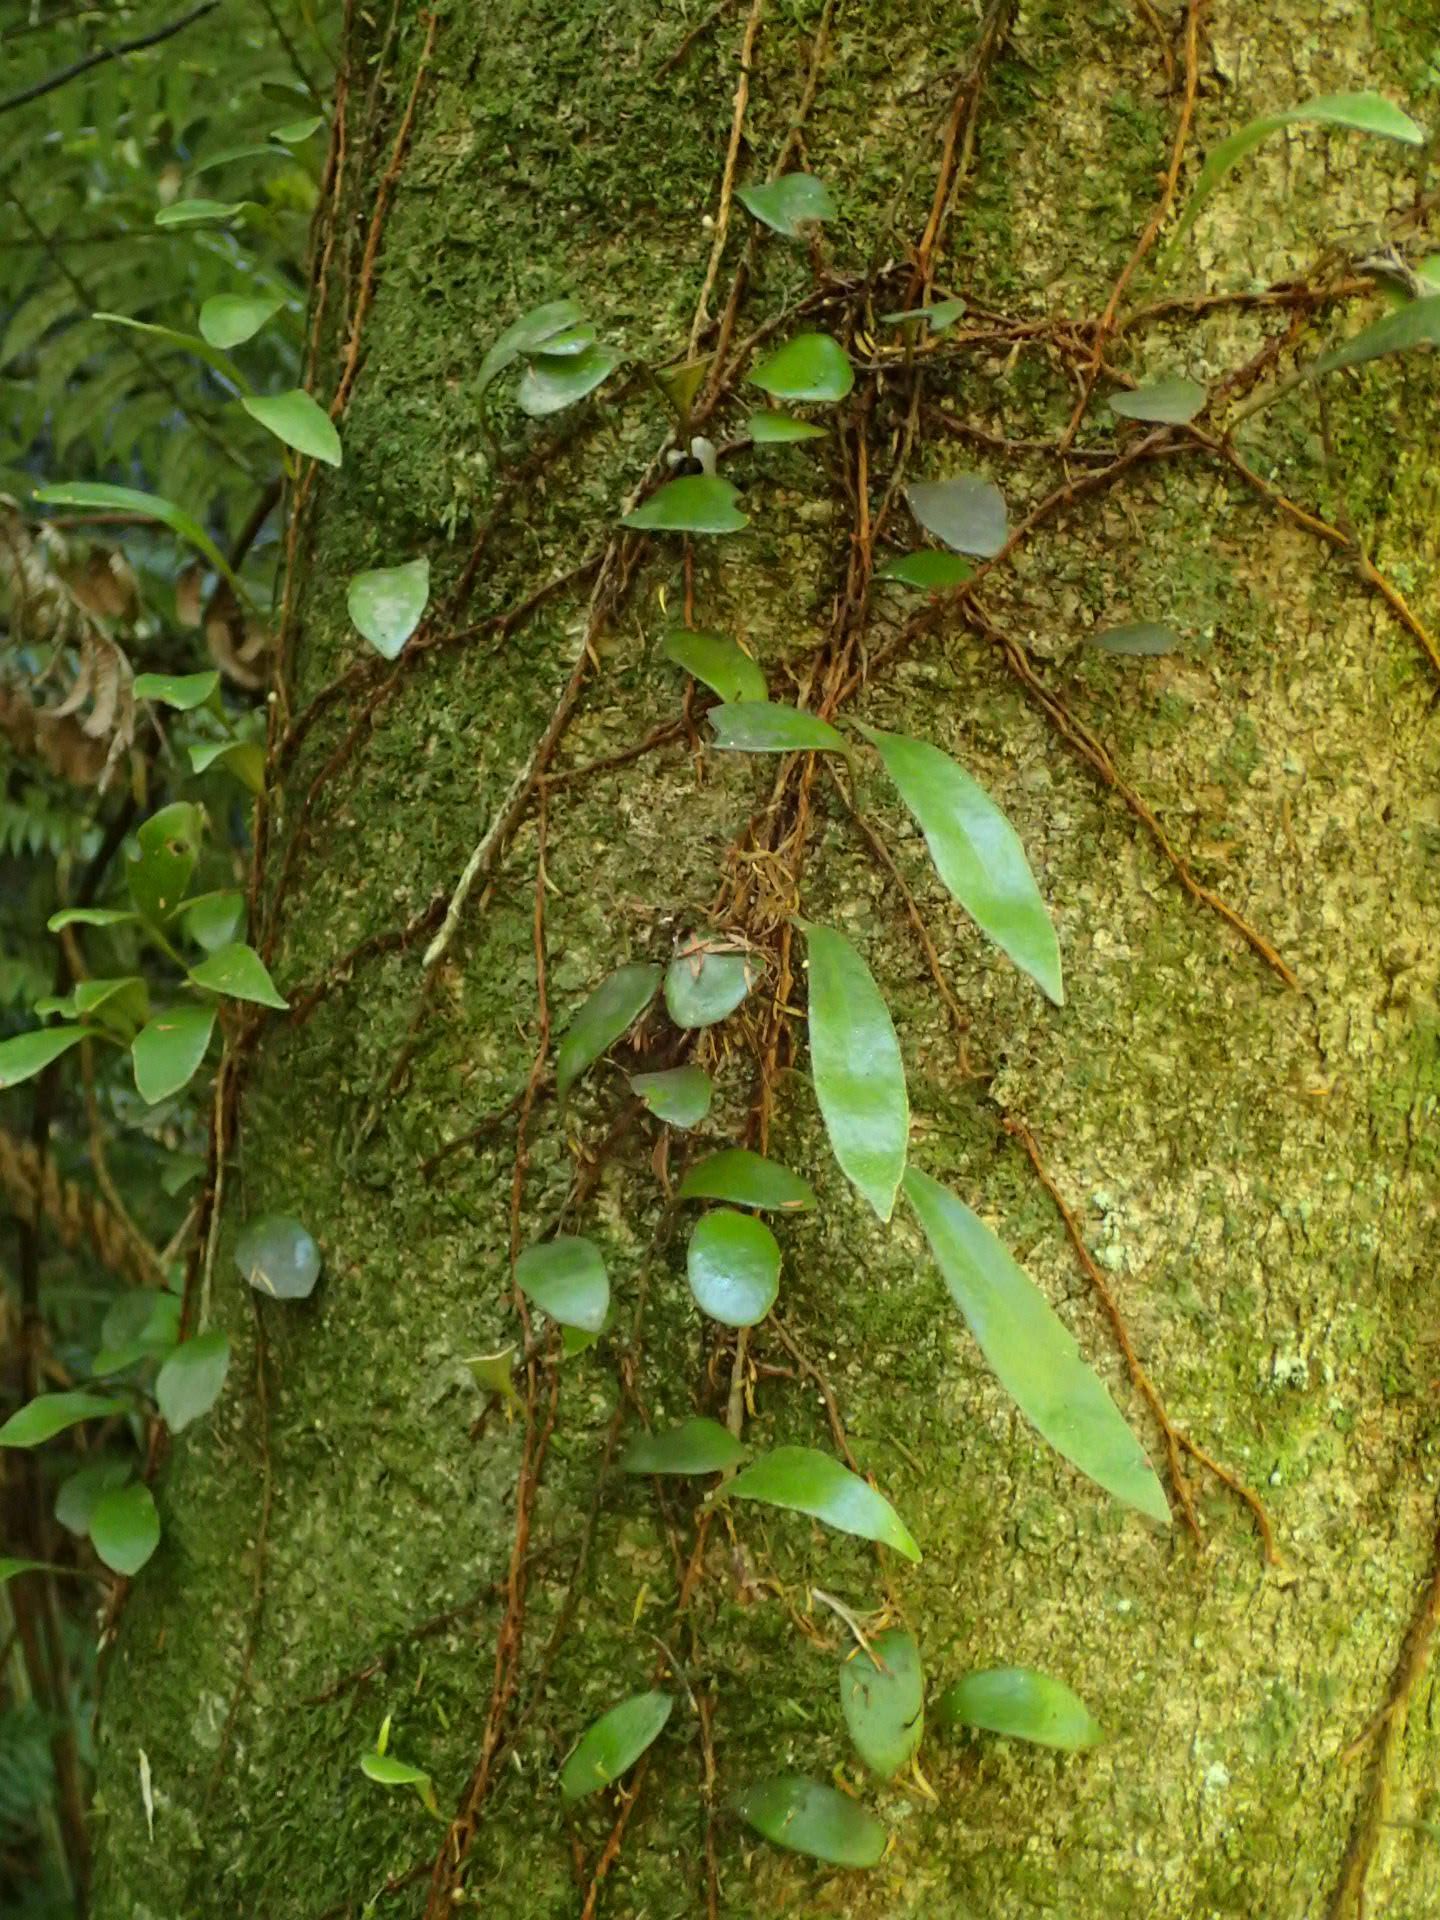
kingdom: Plantae
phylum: Tracheophyta
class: Polypodiopsida
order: Polypodiales
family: Polypodiaceae
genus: Pyrrosia
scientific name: Pyrrosia eleagnifolia
